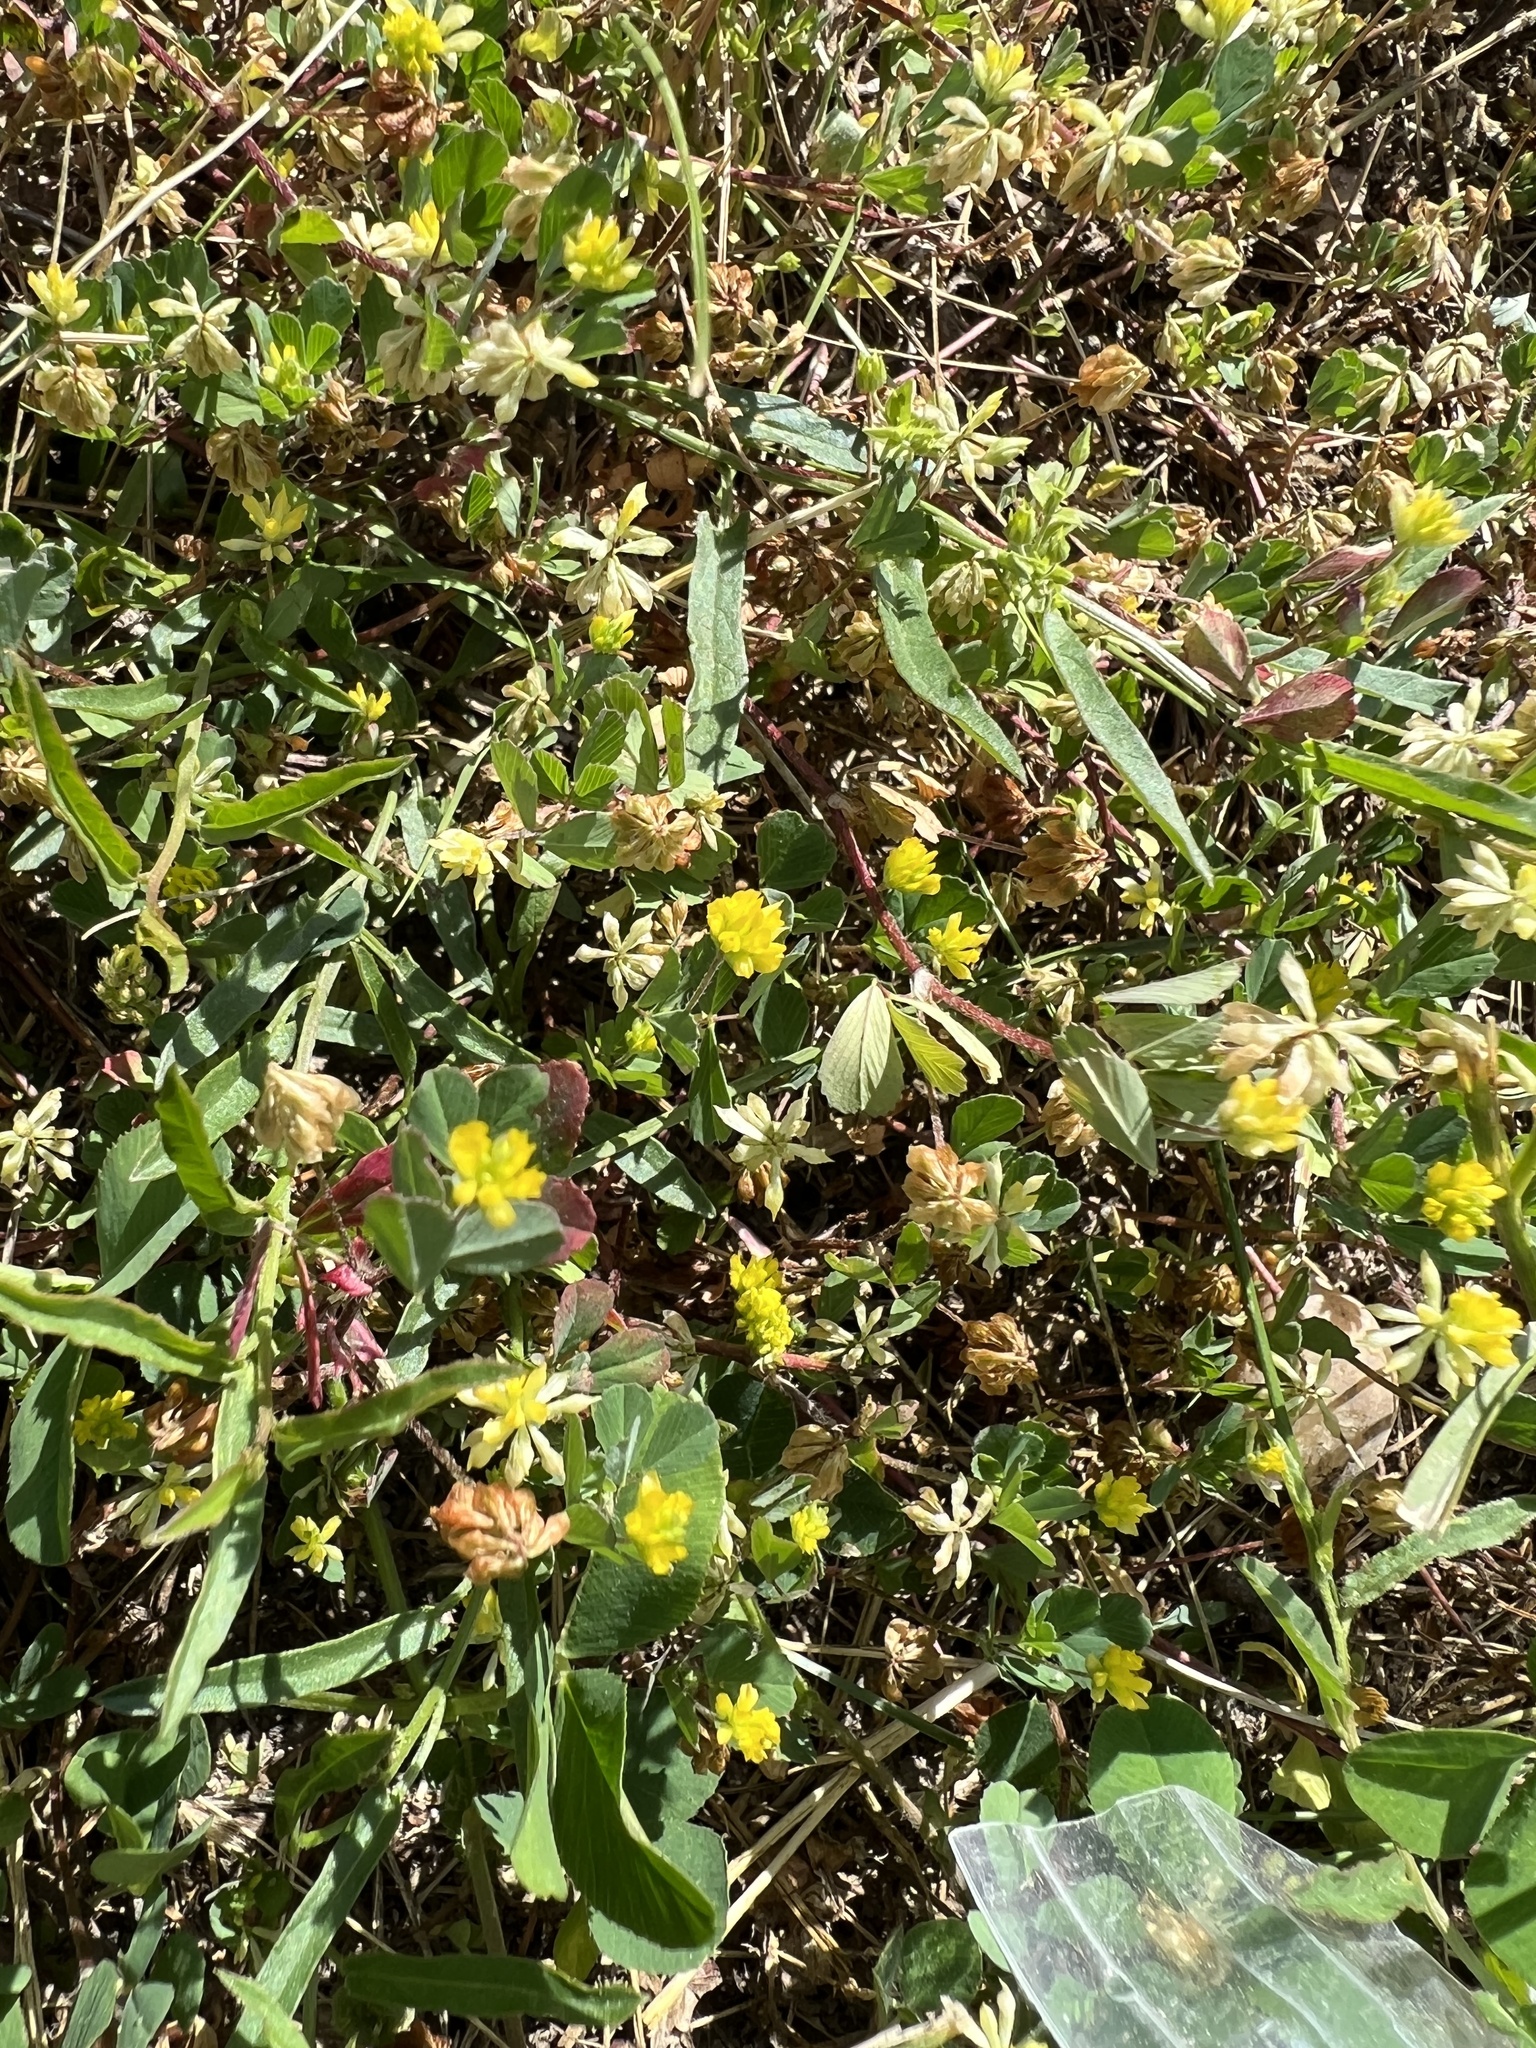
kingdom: Plantae
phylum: Tracheophyta
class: Magnoliopsida
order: Fabales
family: Fabaceae
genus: Trifolium
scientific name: Trifolium dubium
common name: Suckling clover
